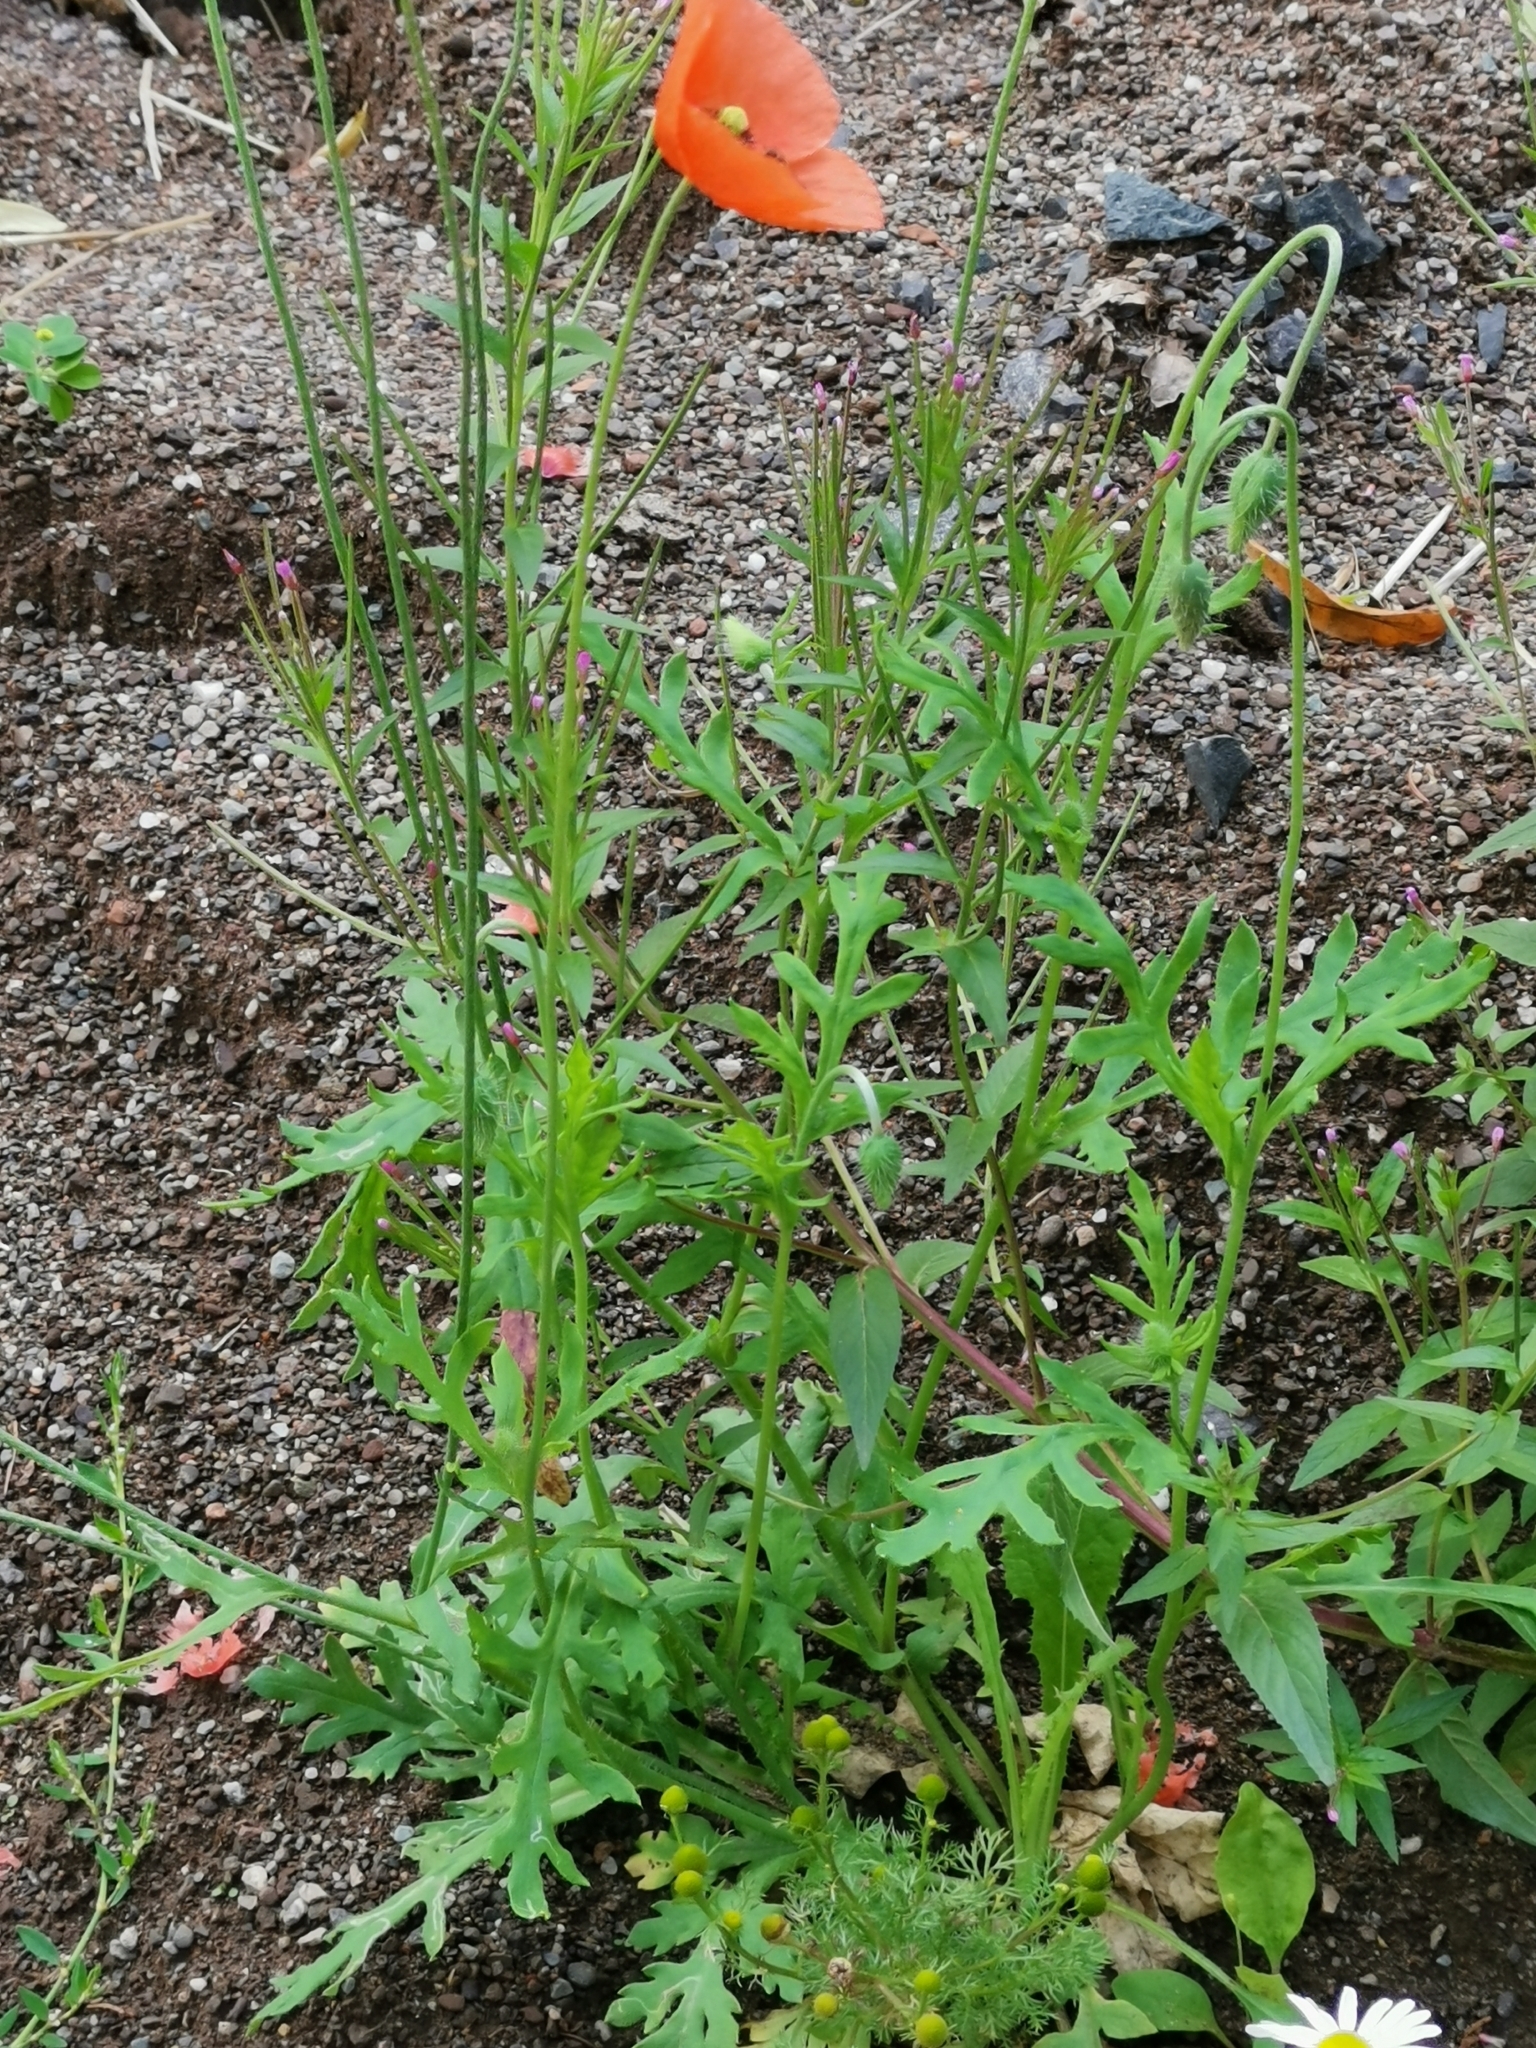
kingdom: Plantae
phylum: Tracheophyta
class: Magnoliopsida
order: Ranunculales
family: Papaveraceae
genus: Papaver
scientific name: Papaver dubium
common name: Long-headed poppy
